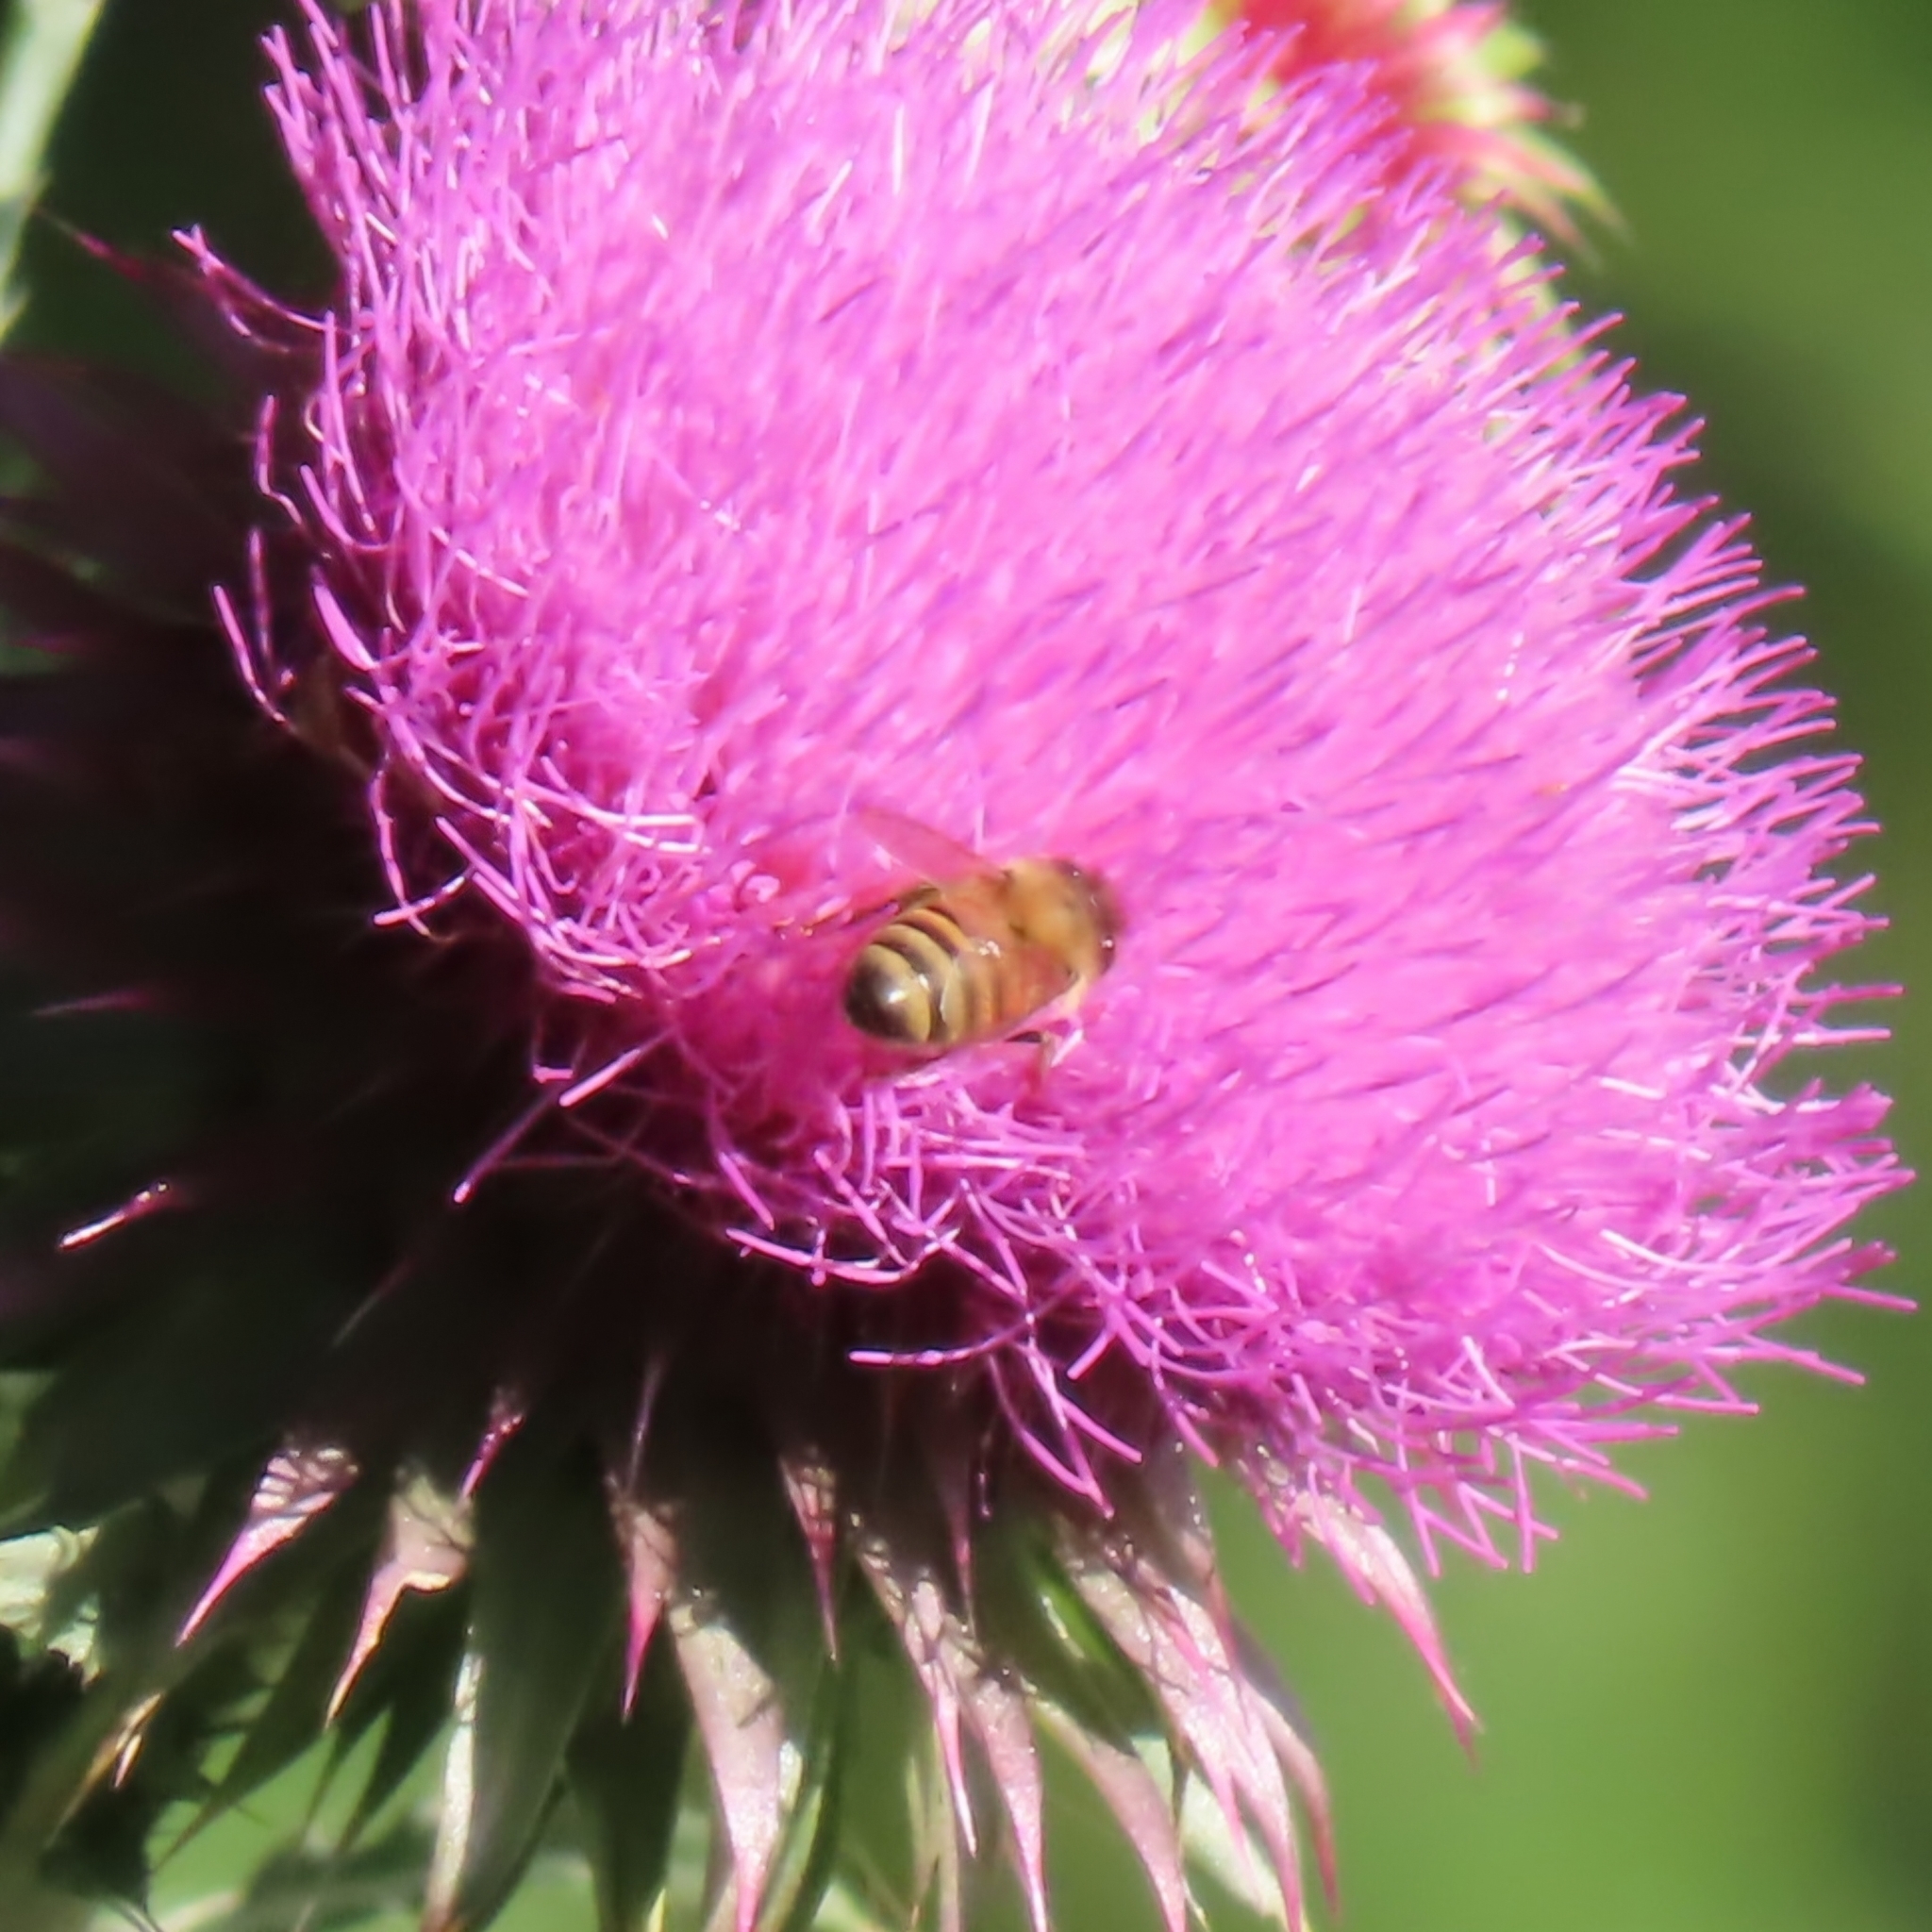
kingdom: Animalia
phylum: Arthropoda
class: Insecta
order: Hymenoptera
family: Apidae
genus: Apis
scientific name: Apis mellifera
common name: Honey bee
